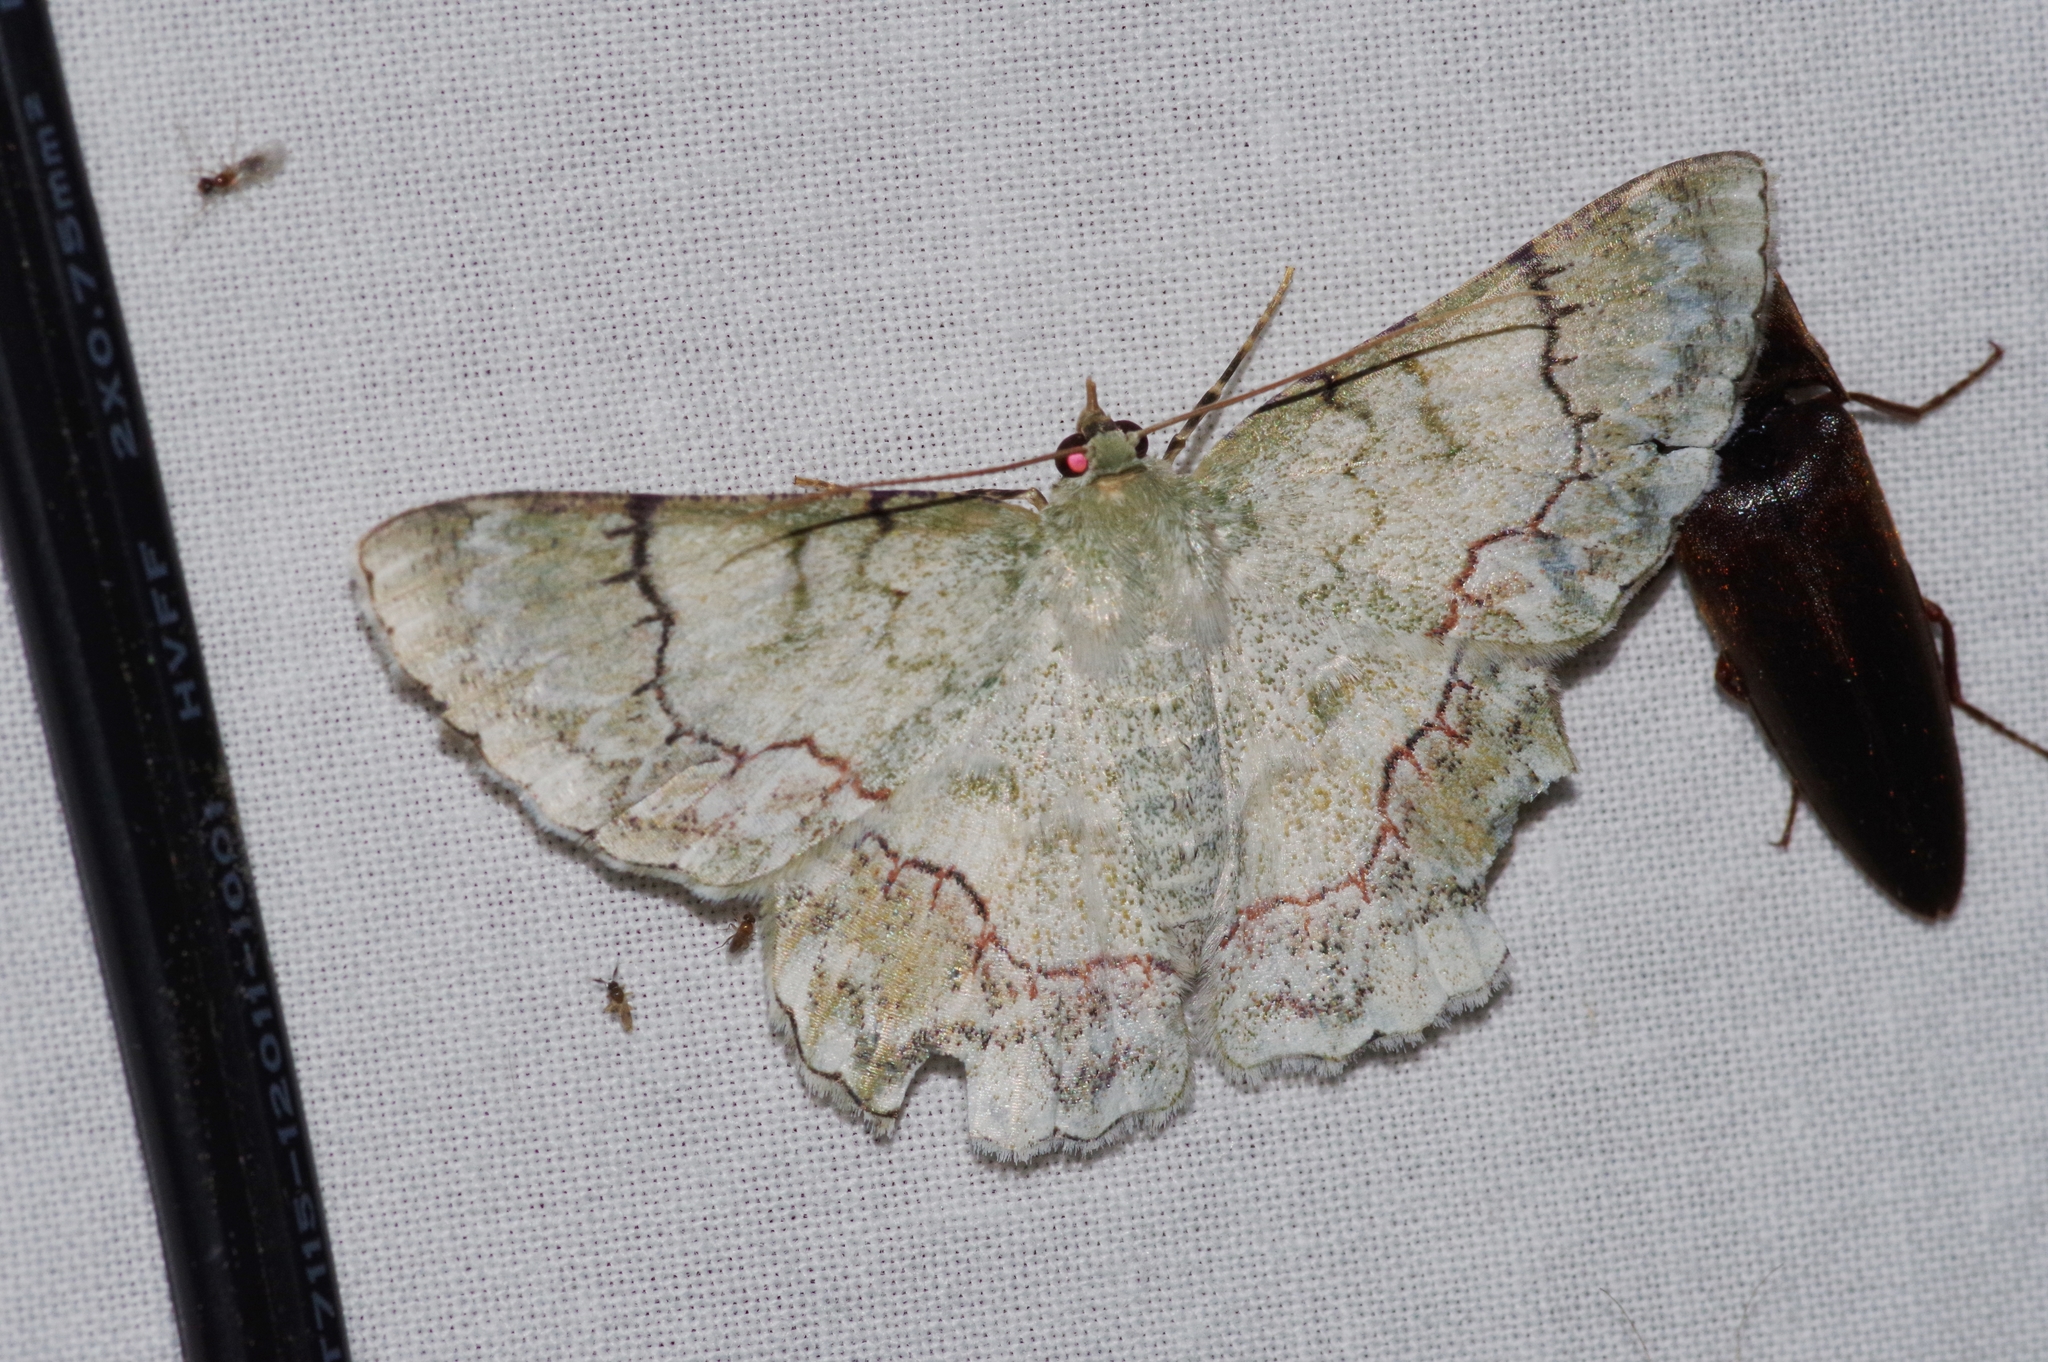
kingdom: Animalia
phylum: Arthropoda
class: Insecta
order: Lepidoptera
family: Geometridae
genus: Pingasa
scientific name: Pingasa ruginaria
